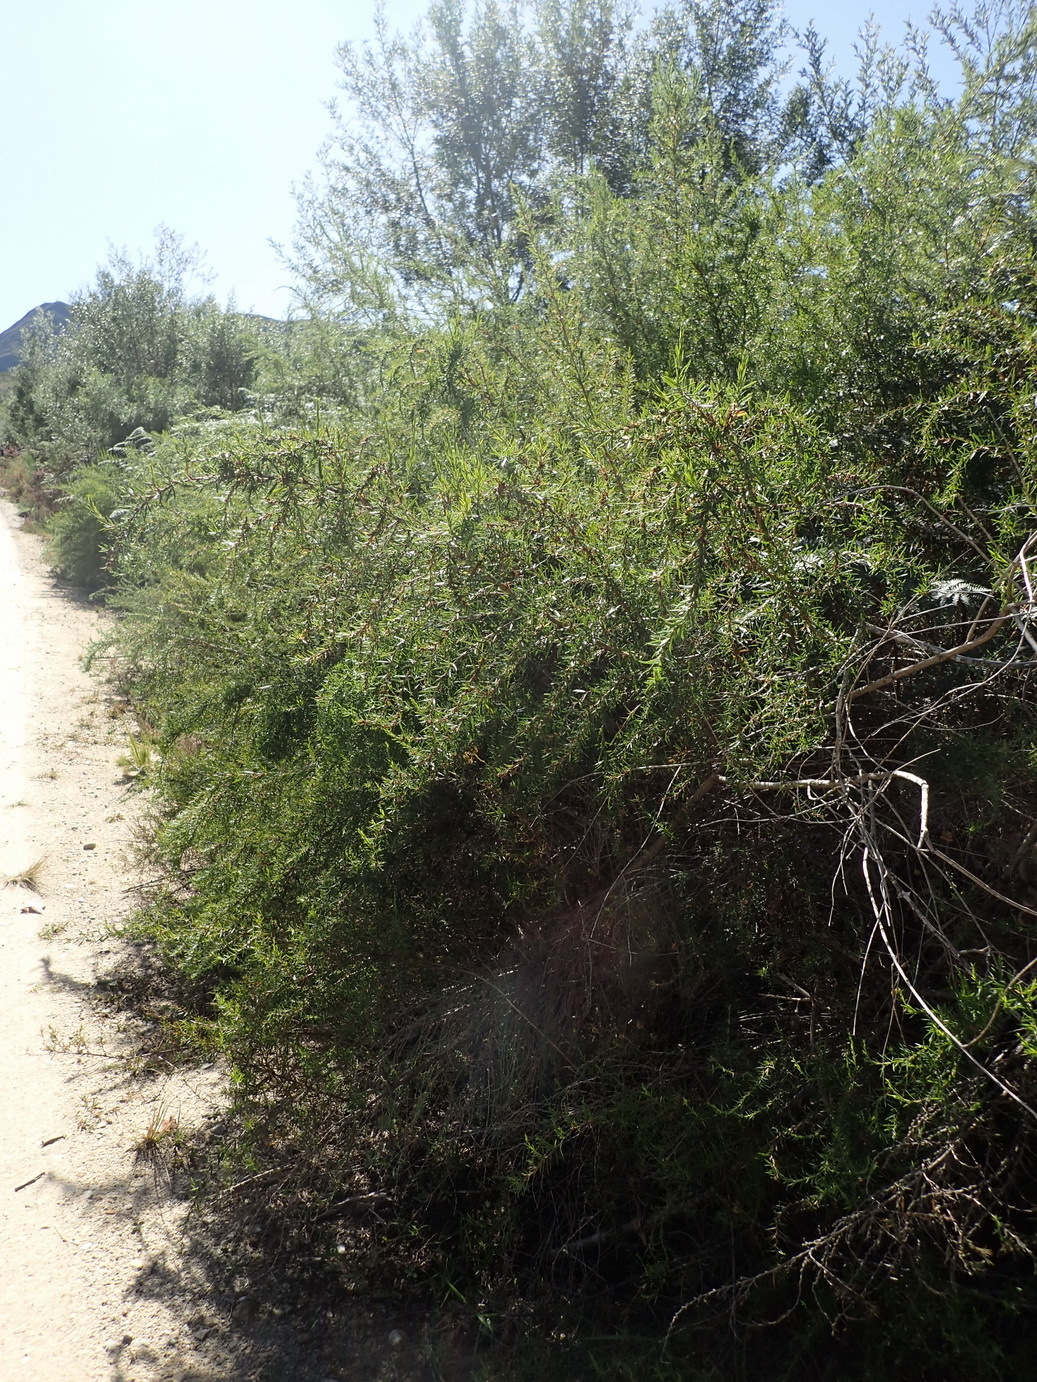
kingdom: Plantae
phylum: Tracheophyta
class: Magnoliopsida
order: Rosales
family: Rosaceae
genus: Cliffortia
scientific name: Cliffortia strobilifera
